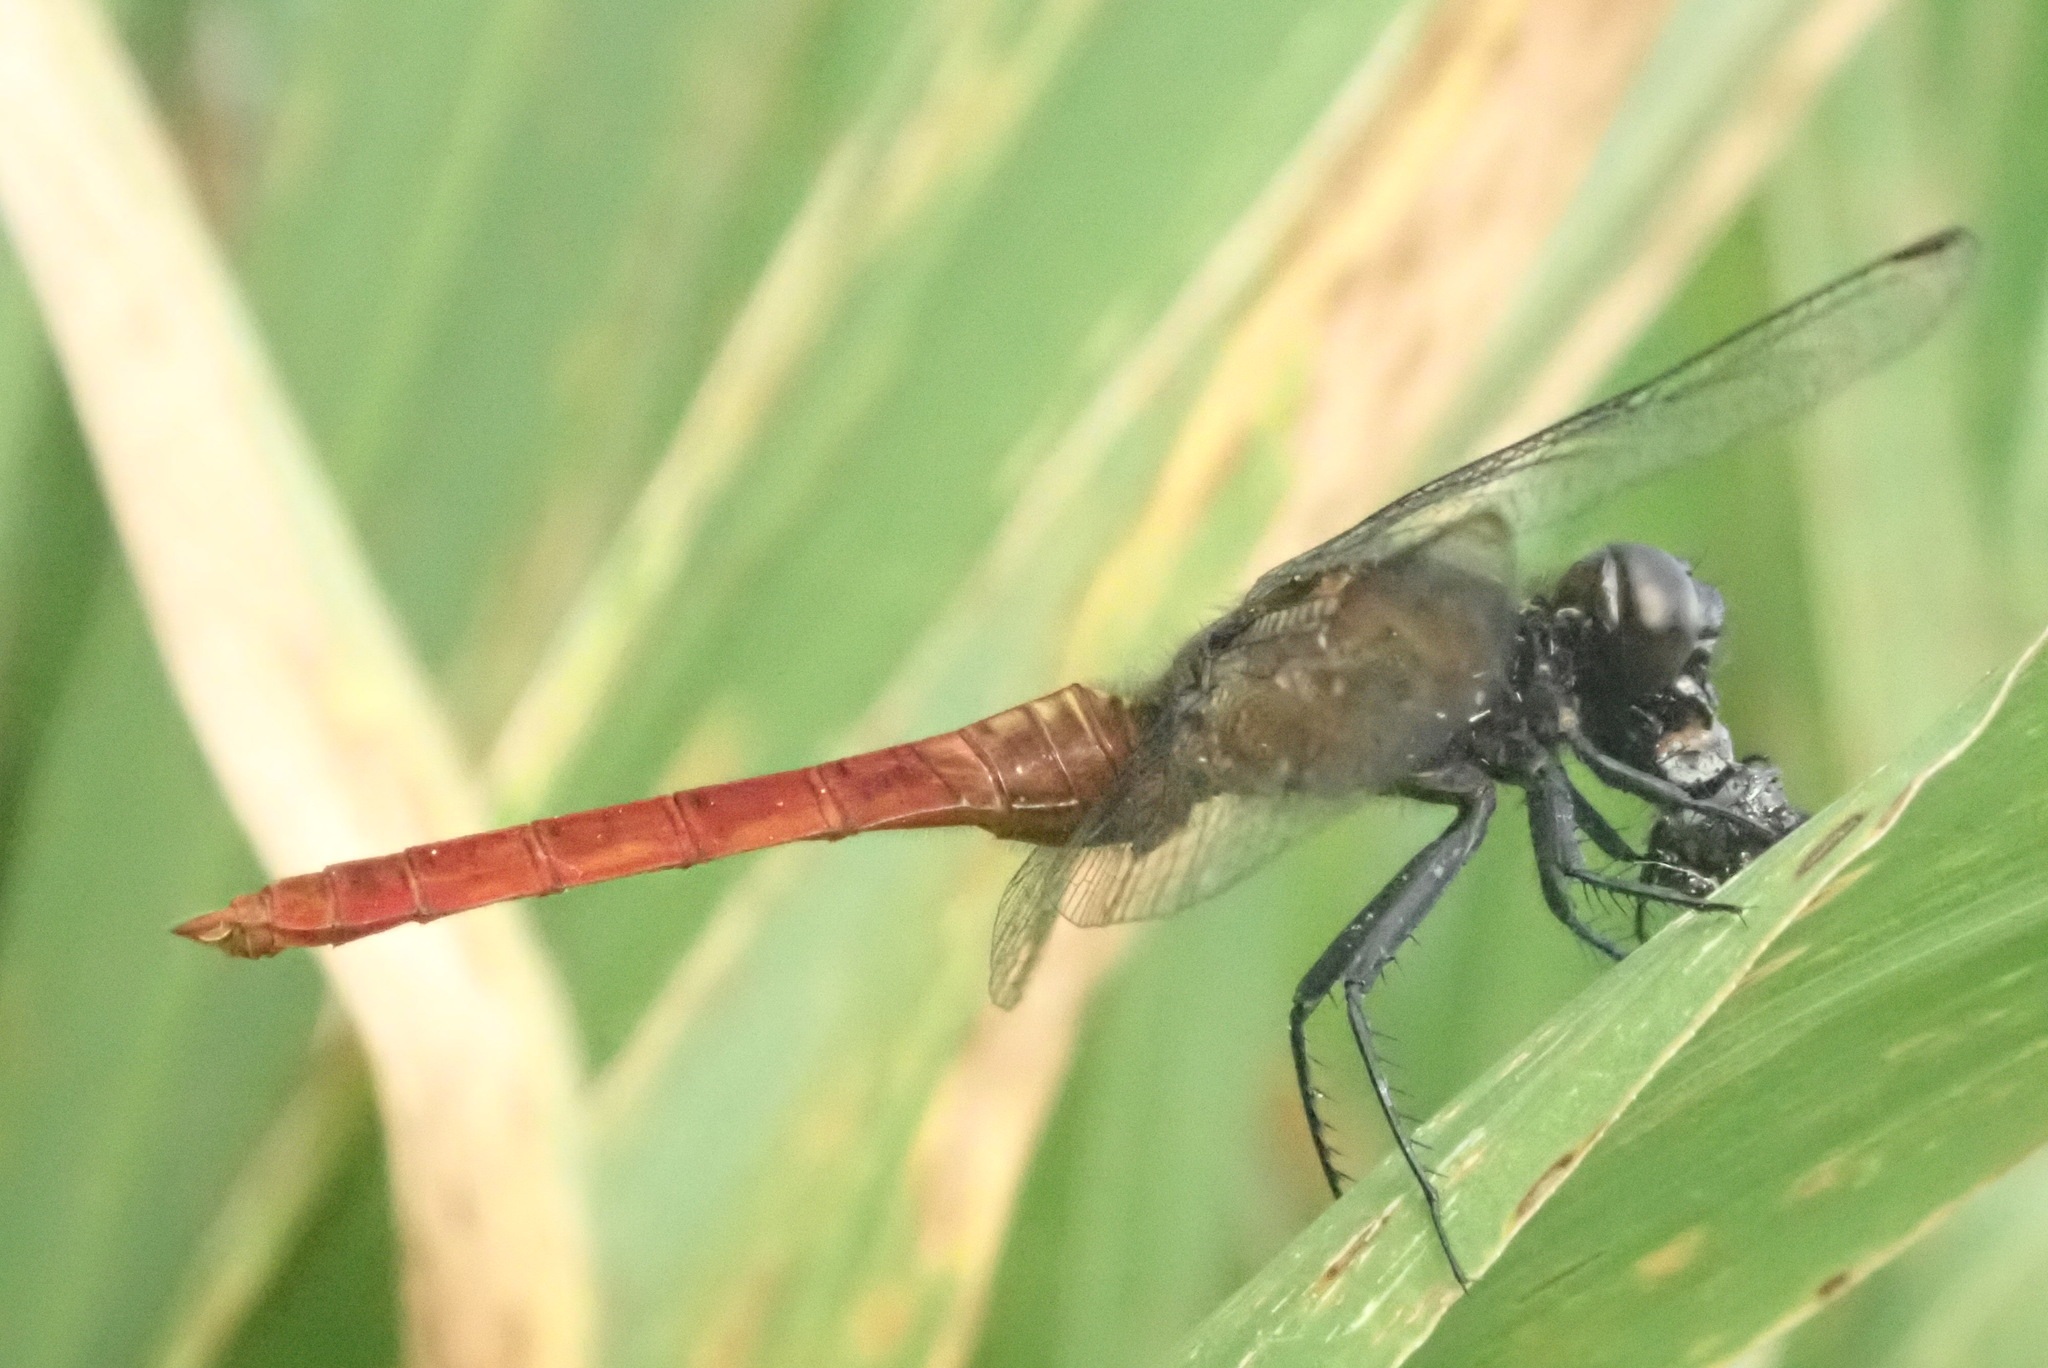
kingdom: Animalia
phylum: Arthropoda
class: Insecta
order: Odonata
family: Libellulidae
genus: Erythemis
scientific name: Erythemis peruviana
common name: Flame-tailed pondhawk
